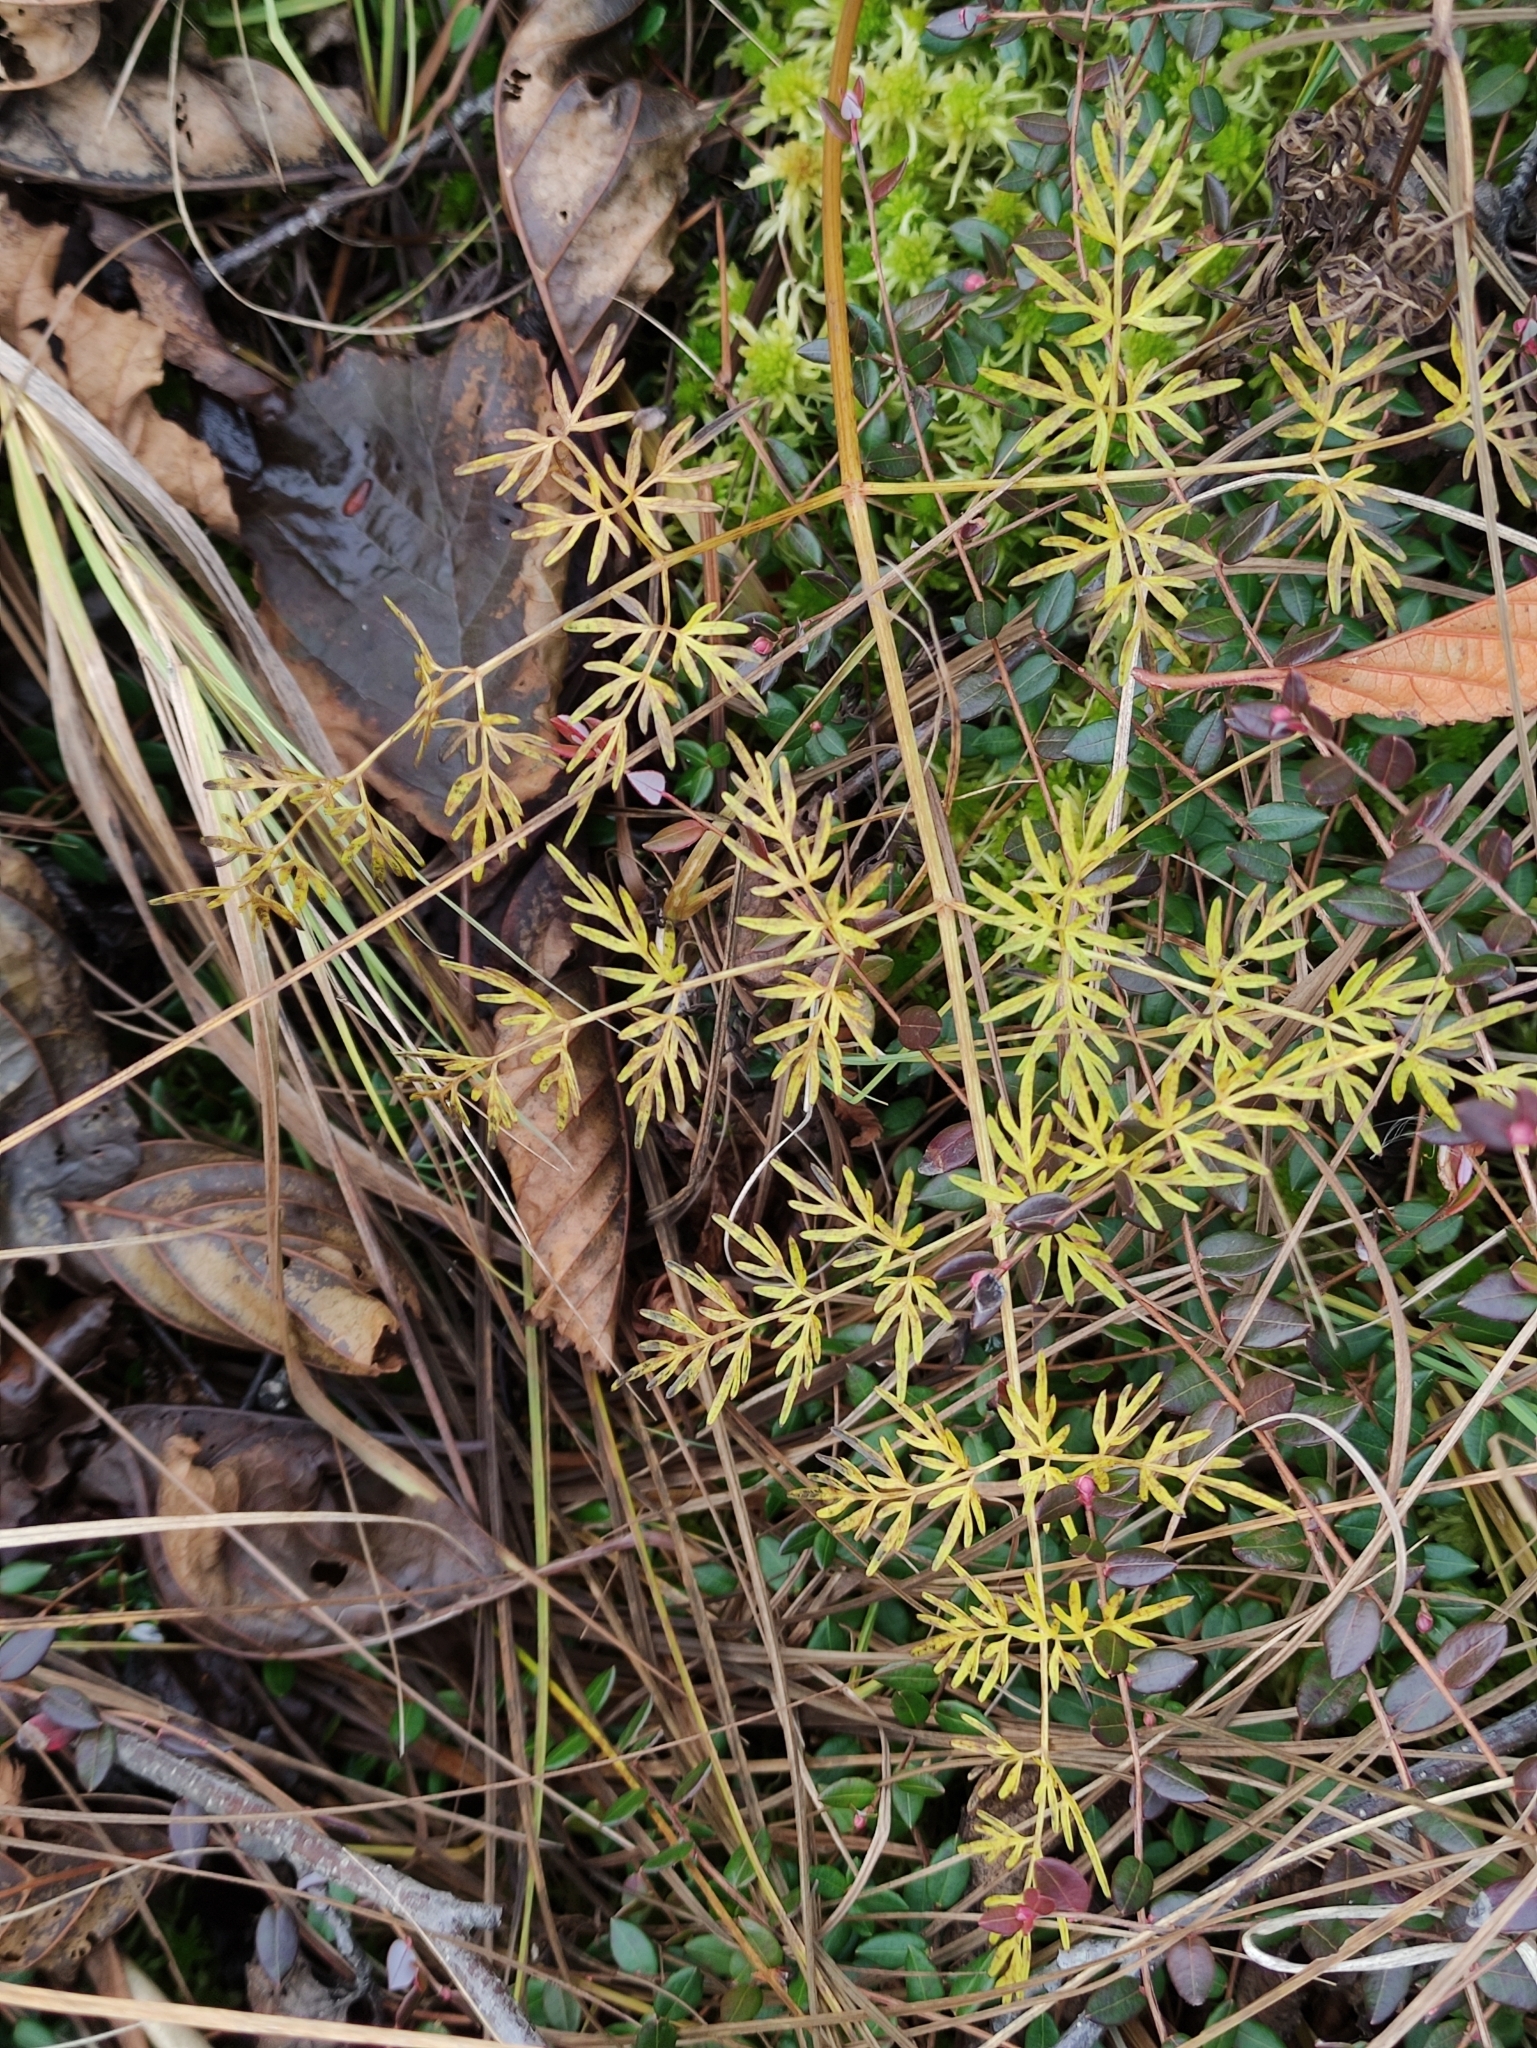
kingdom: Plantae
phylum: Tracheophyta
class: Magnoliopsida
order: Apiales
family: Apiaceae
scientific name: Apiaceae
